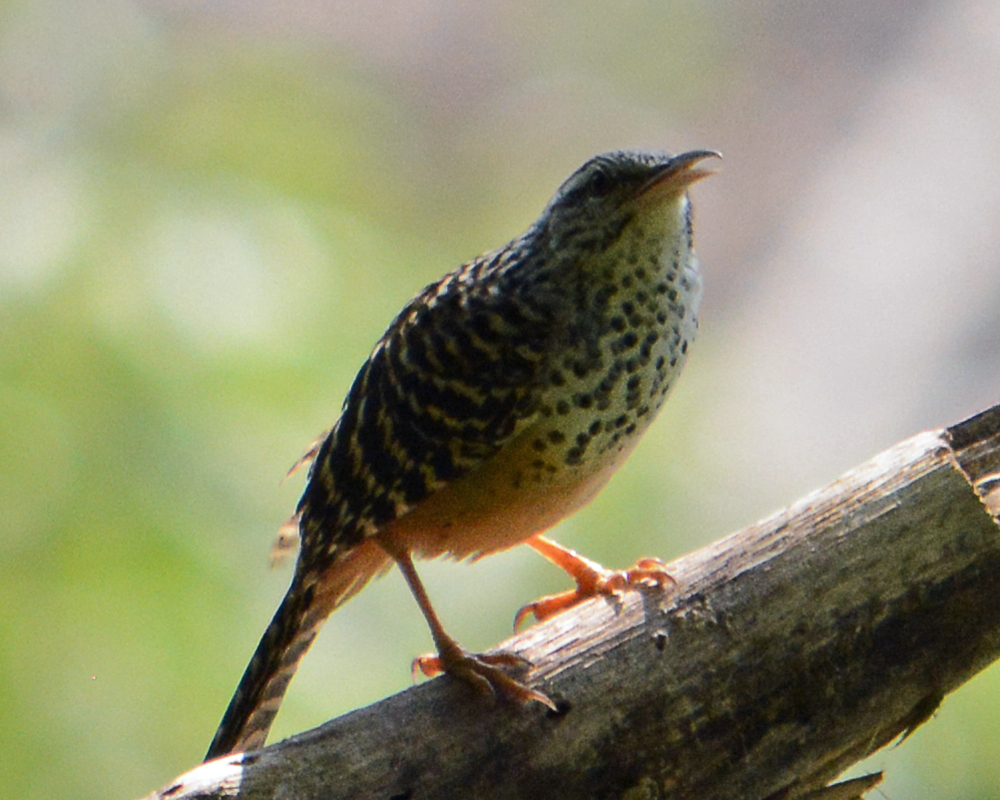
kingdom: Animalia
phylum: Chordata
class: Aves
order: Passeriformes
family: Troglodytidae
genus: Campylorhynchus
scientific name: Campylorhynchus zonatus
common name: Band-backed wren
